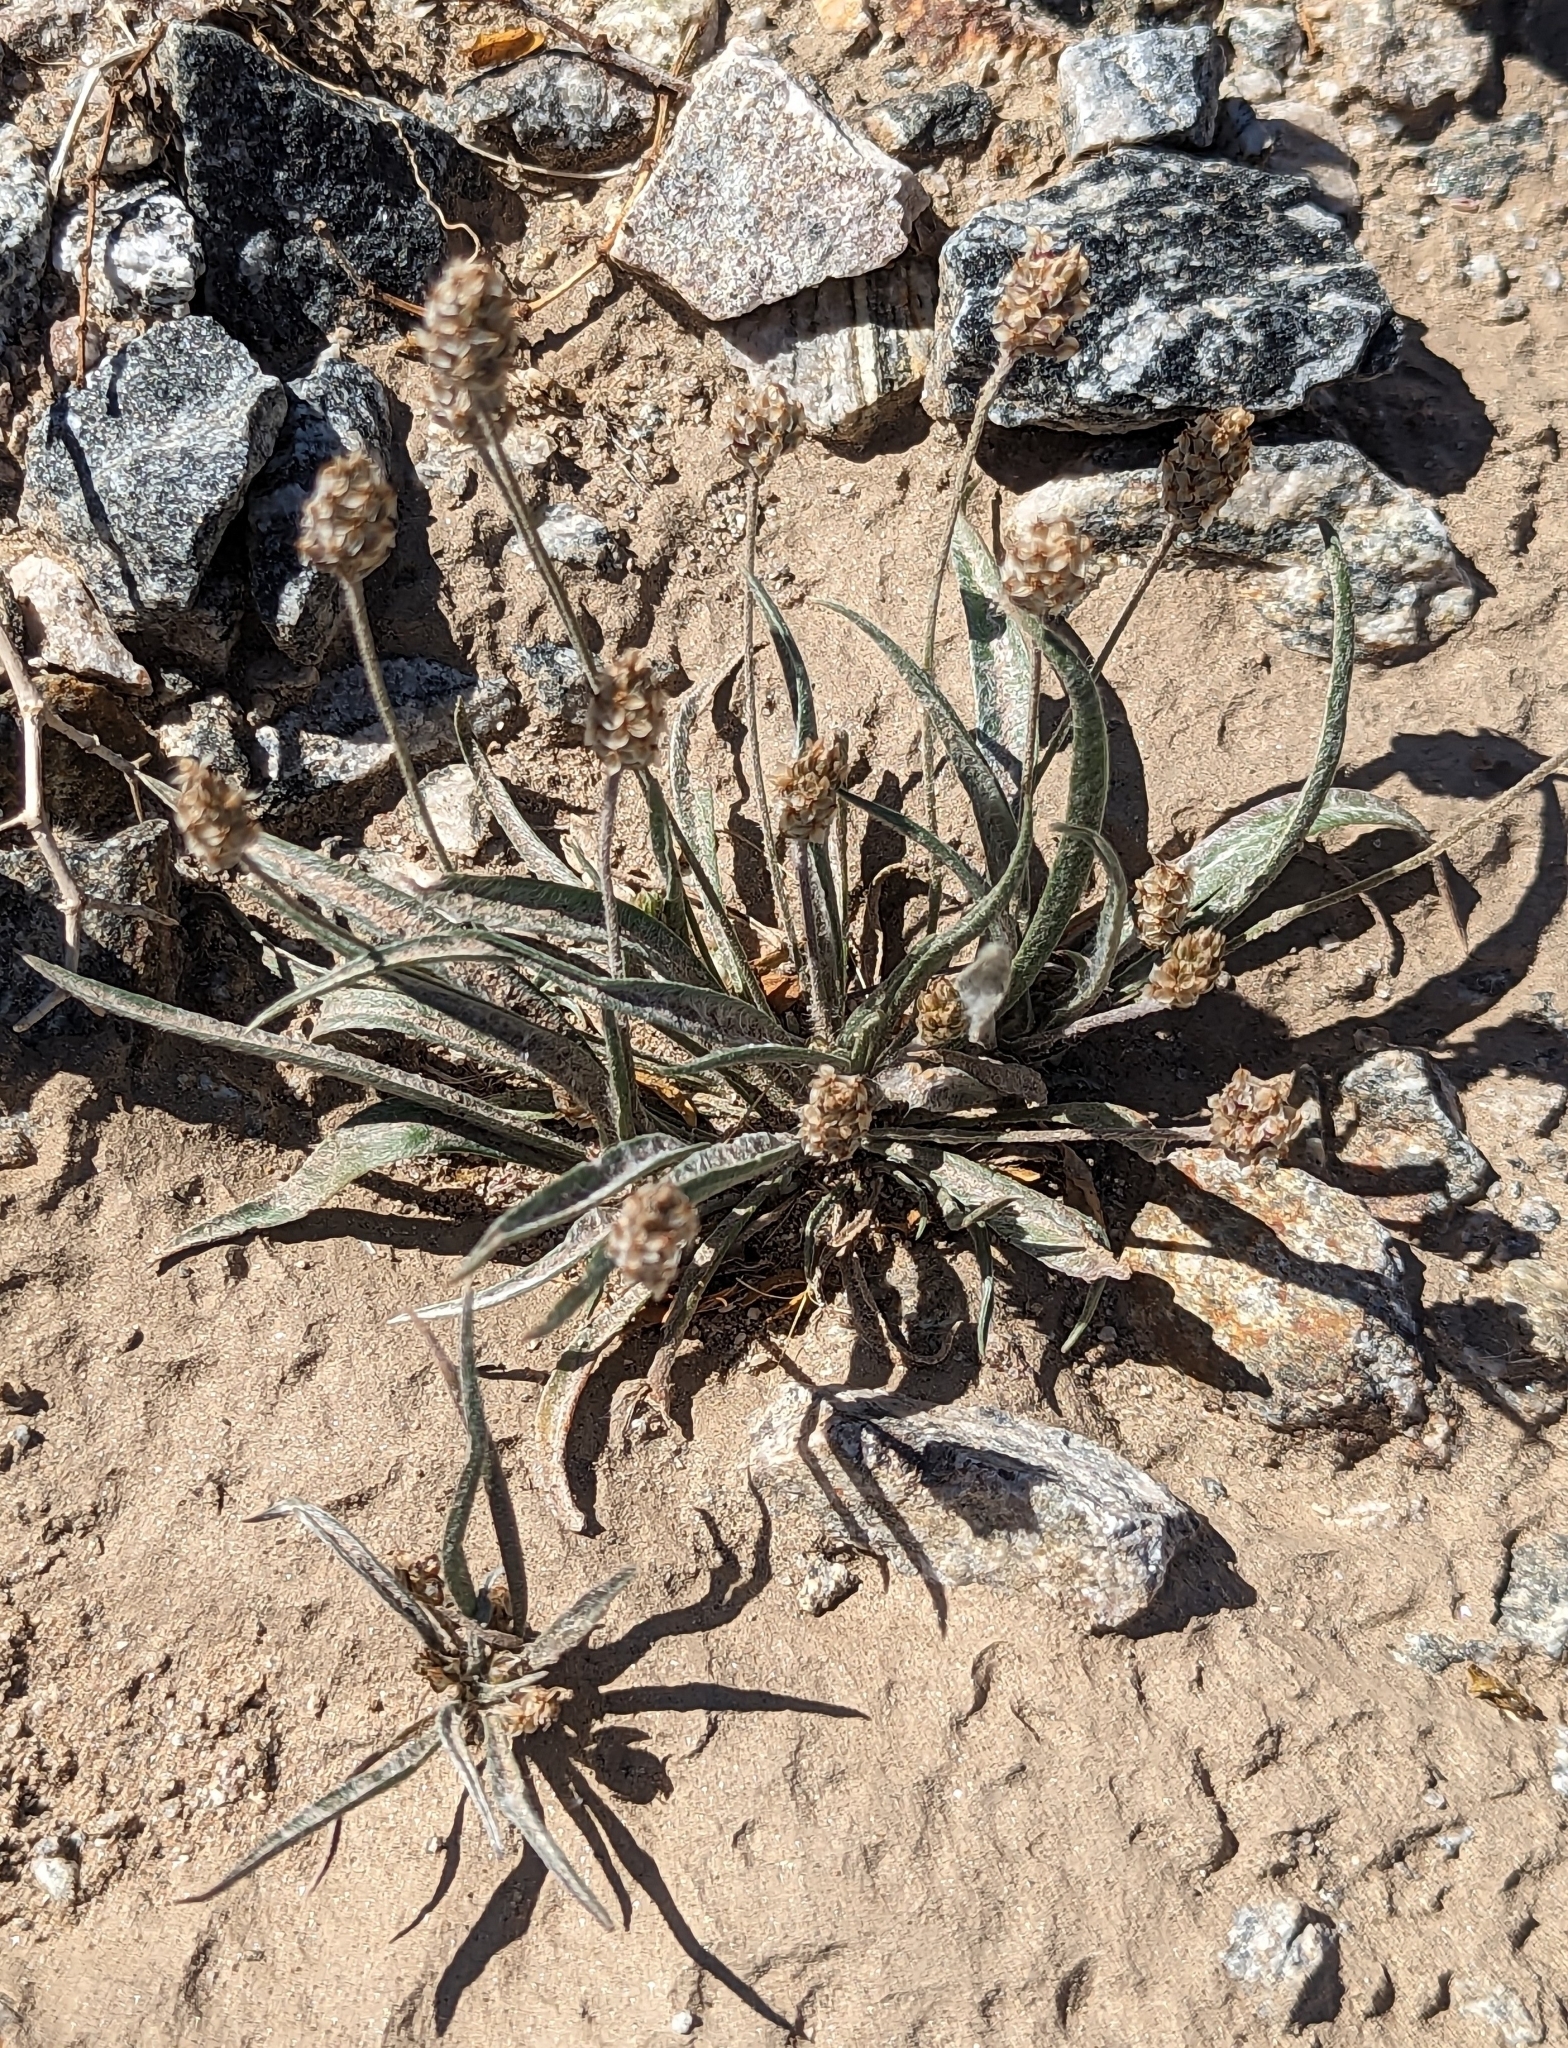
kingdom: Plantae
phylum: Tracheophyta
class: Magnoliopsida
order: Lamiales
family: Plantaginaceae
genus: Plantago
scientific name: Plantago ovata
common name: Blond plantain
